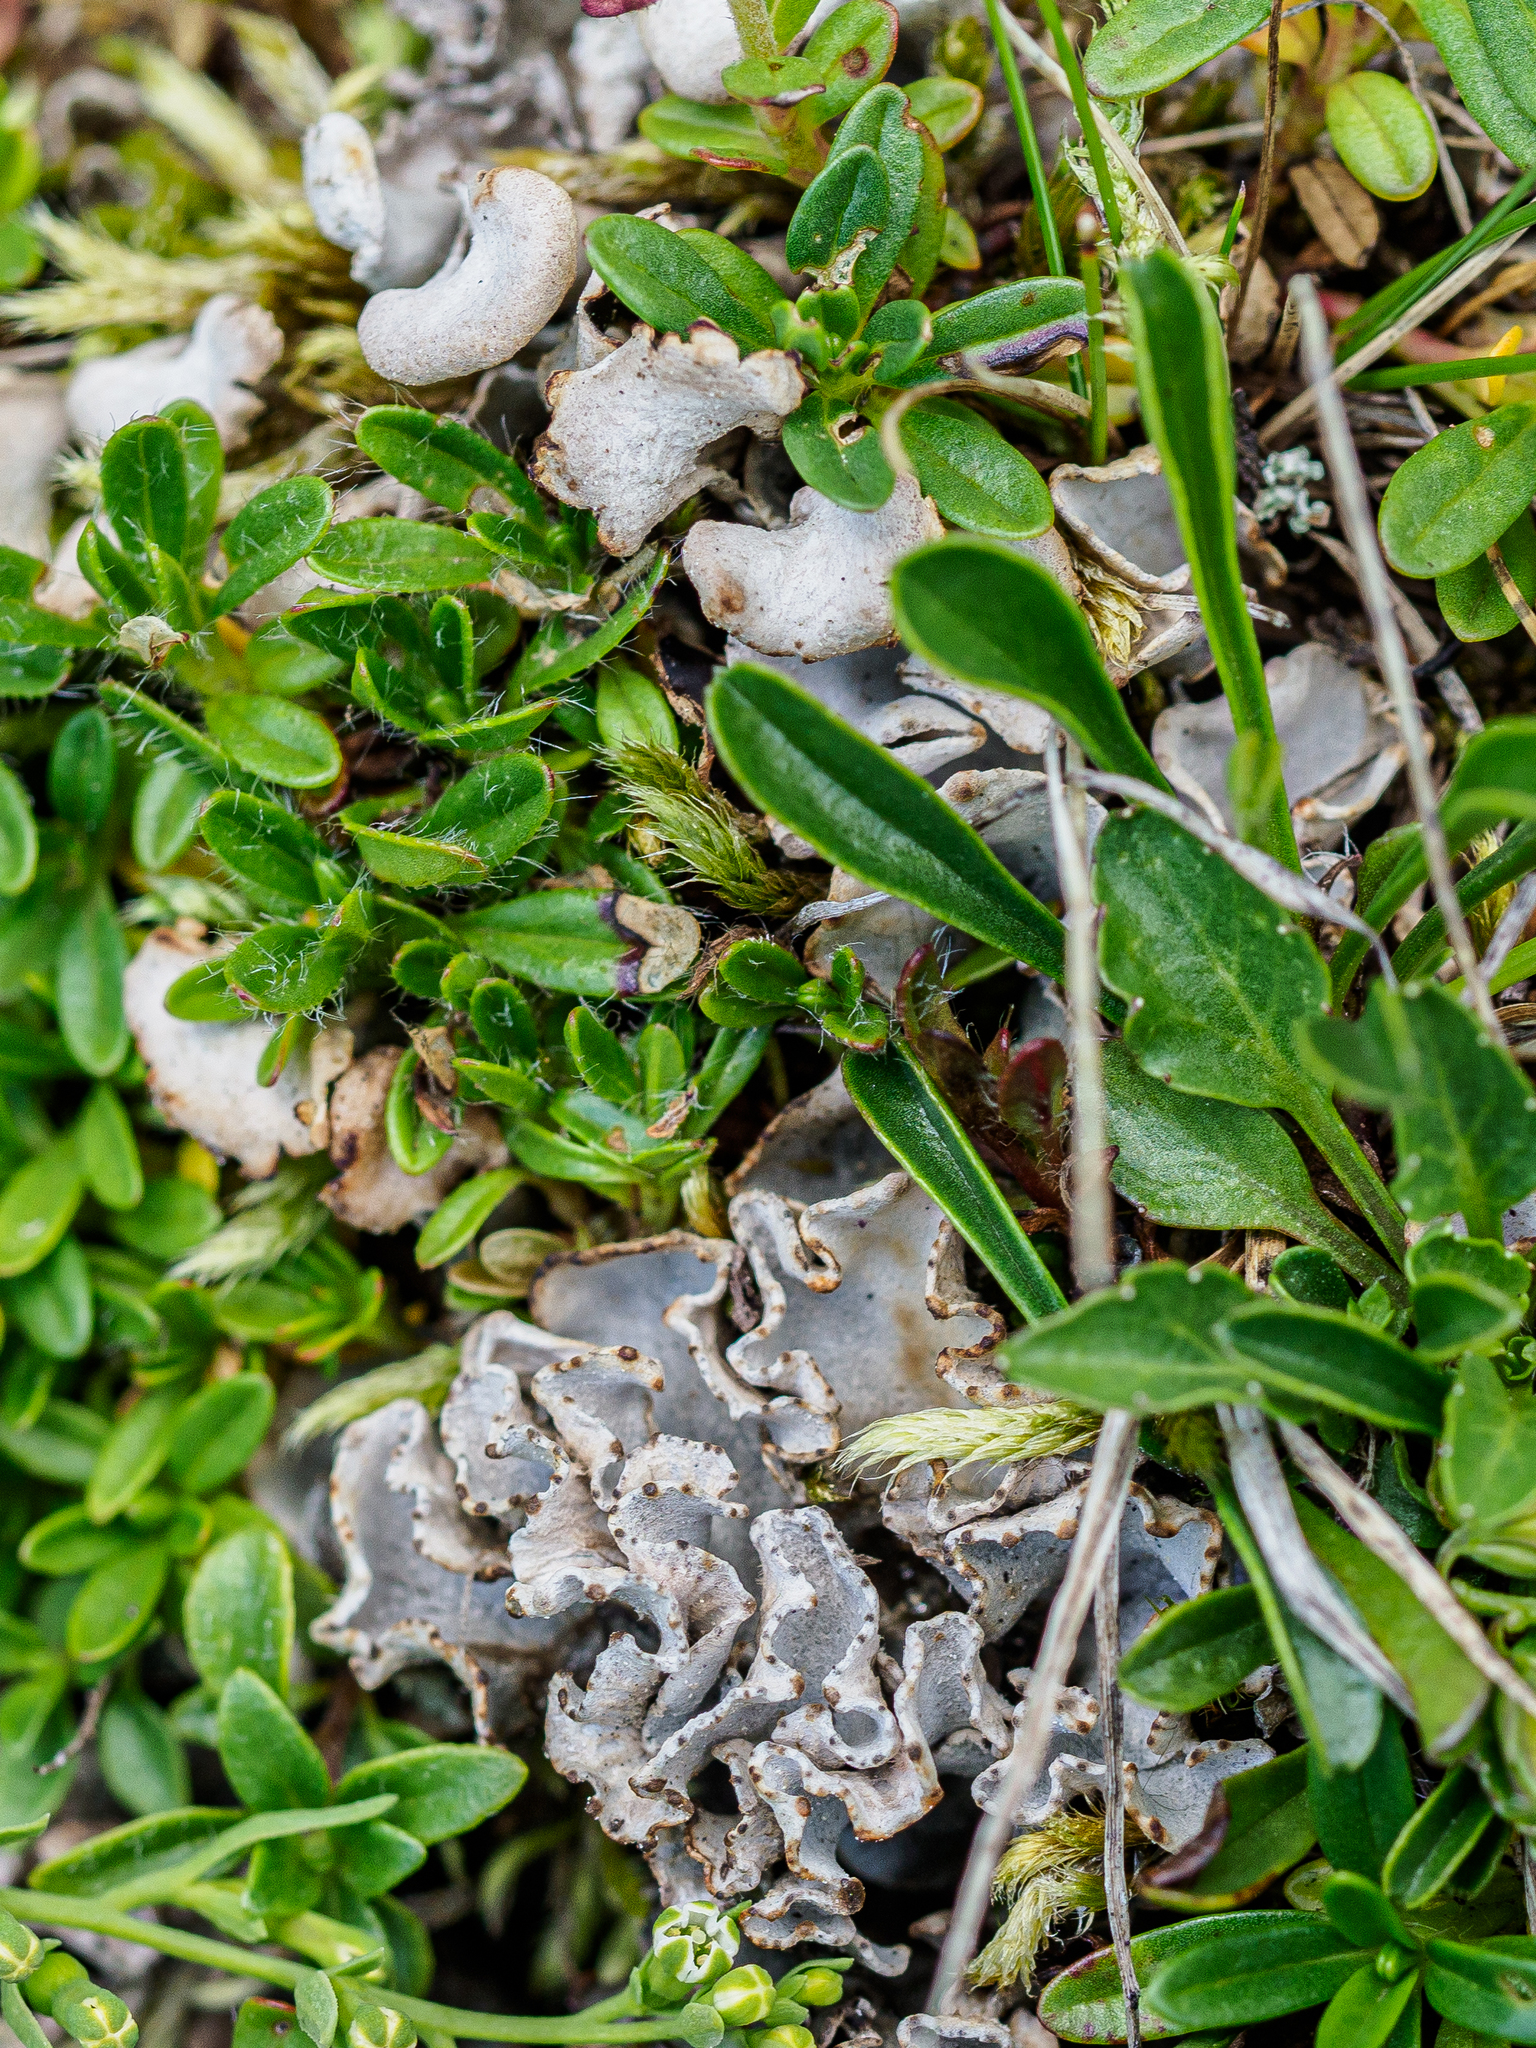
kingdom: Fungi
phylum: Ascomycota
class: Lecanoromycetes
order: Peltigerales
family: Peltigeraceae
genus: Peltigera
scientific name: Peltigera rufescens
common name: Field dog lichen
